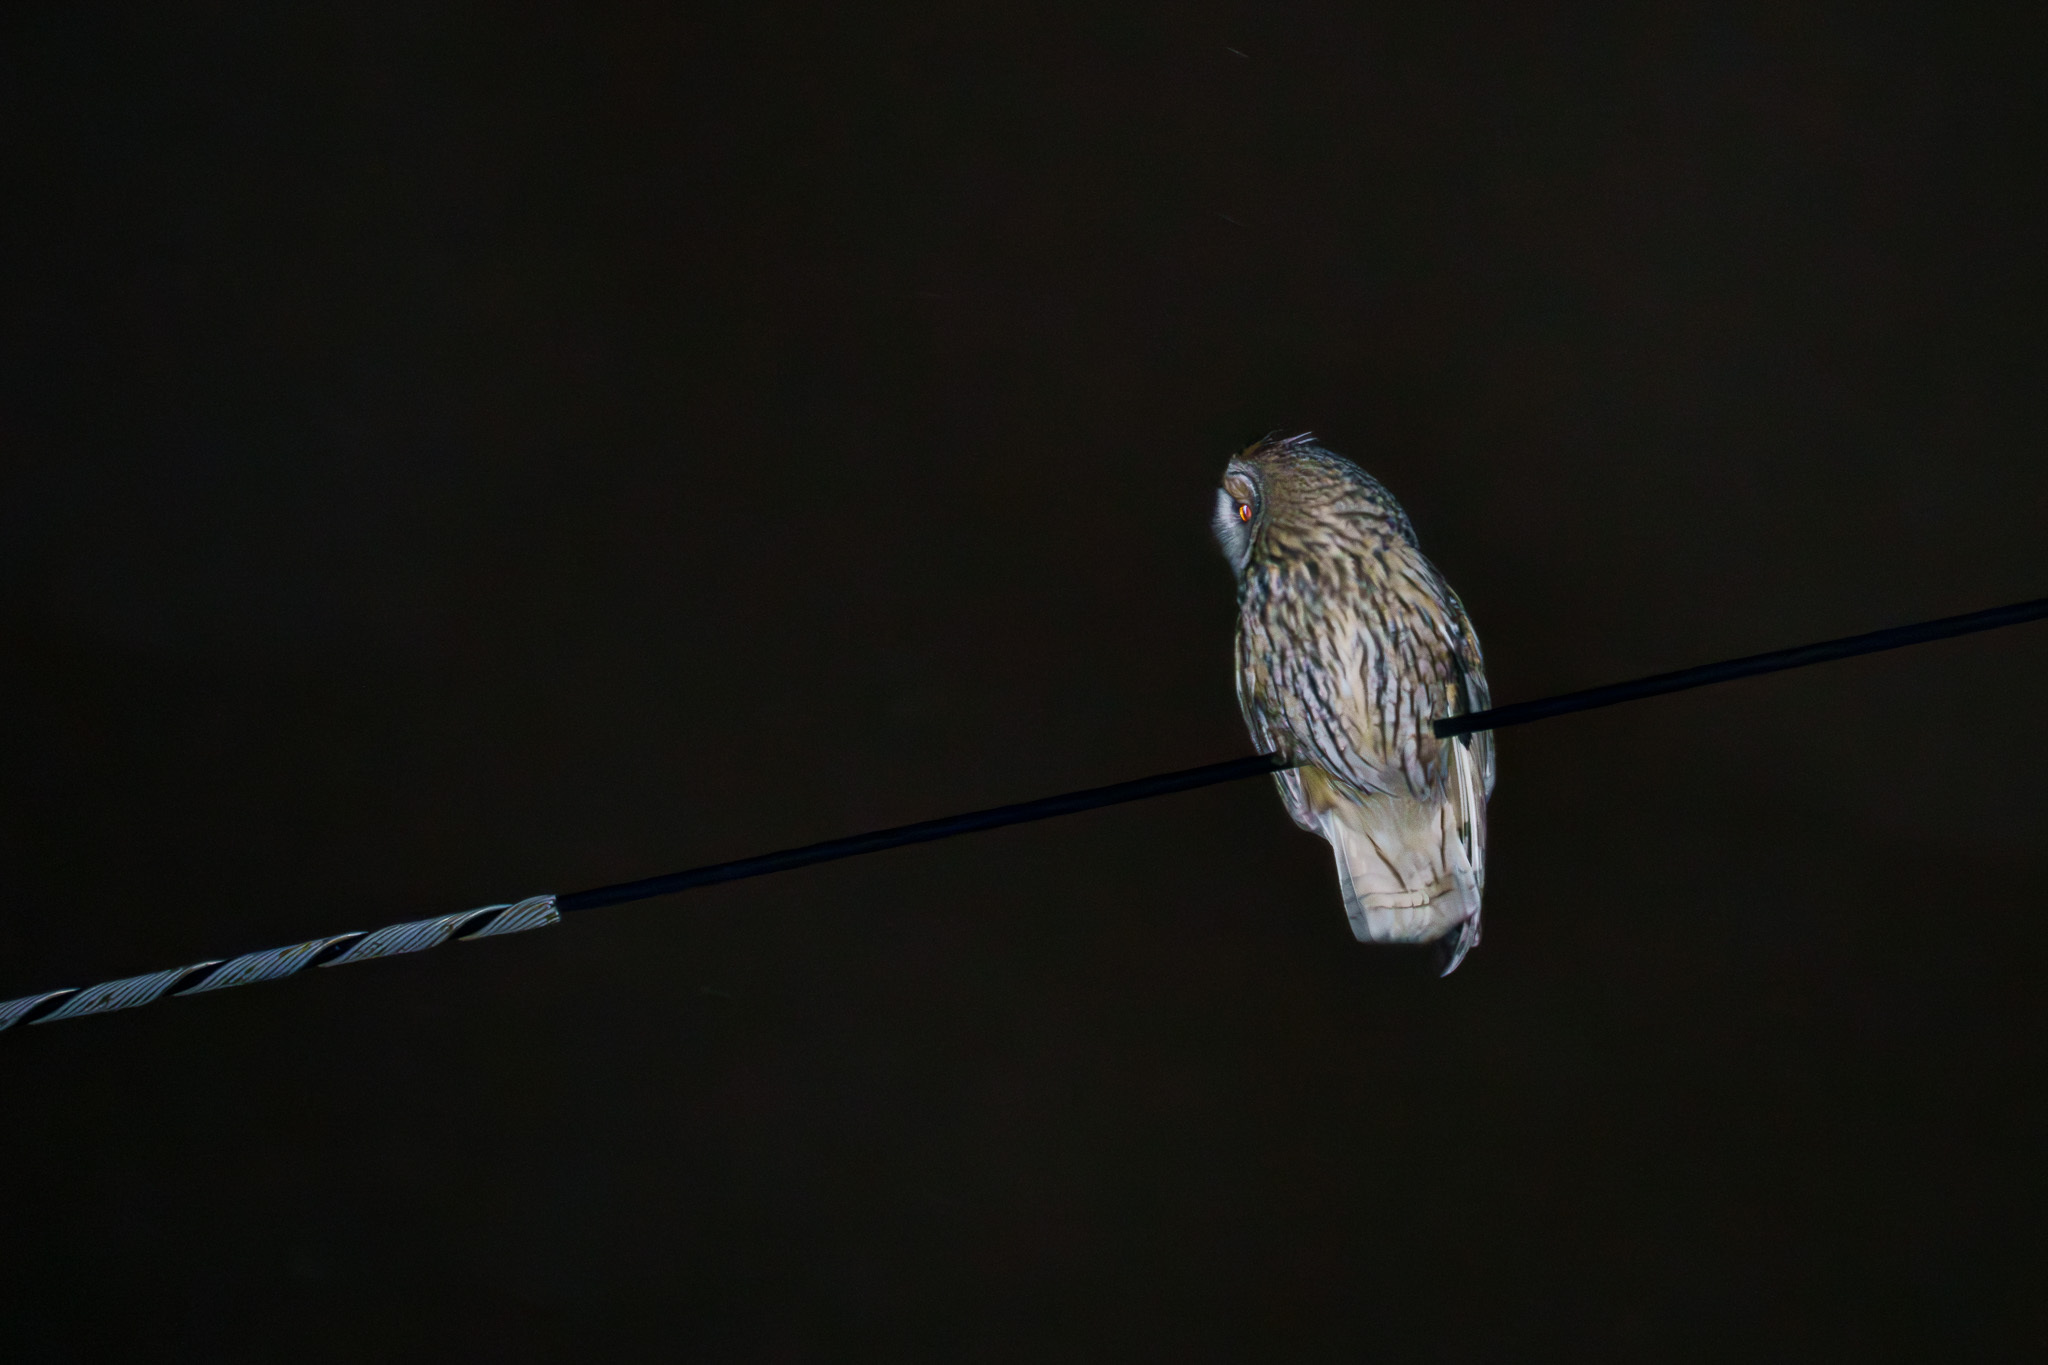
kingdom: Animalia
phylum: Chordata
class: Aves
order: Strigiformes
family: Strigidae
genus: Asio
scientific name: Asio otus
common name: Long-eared owl
